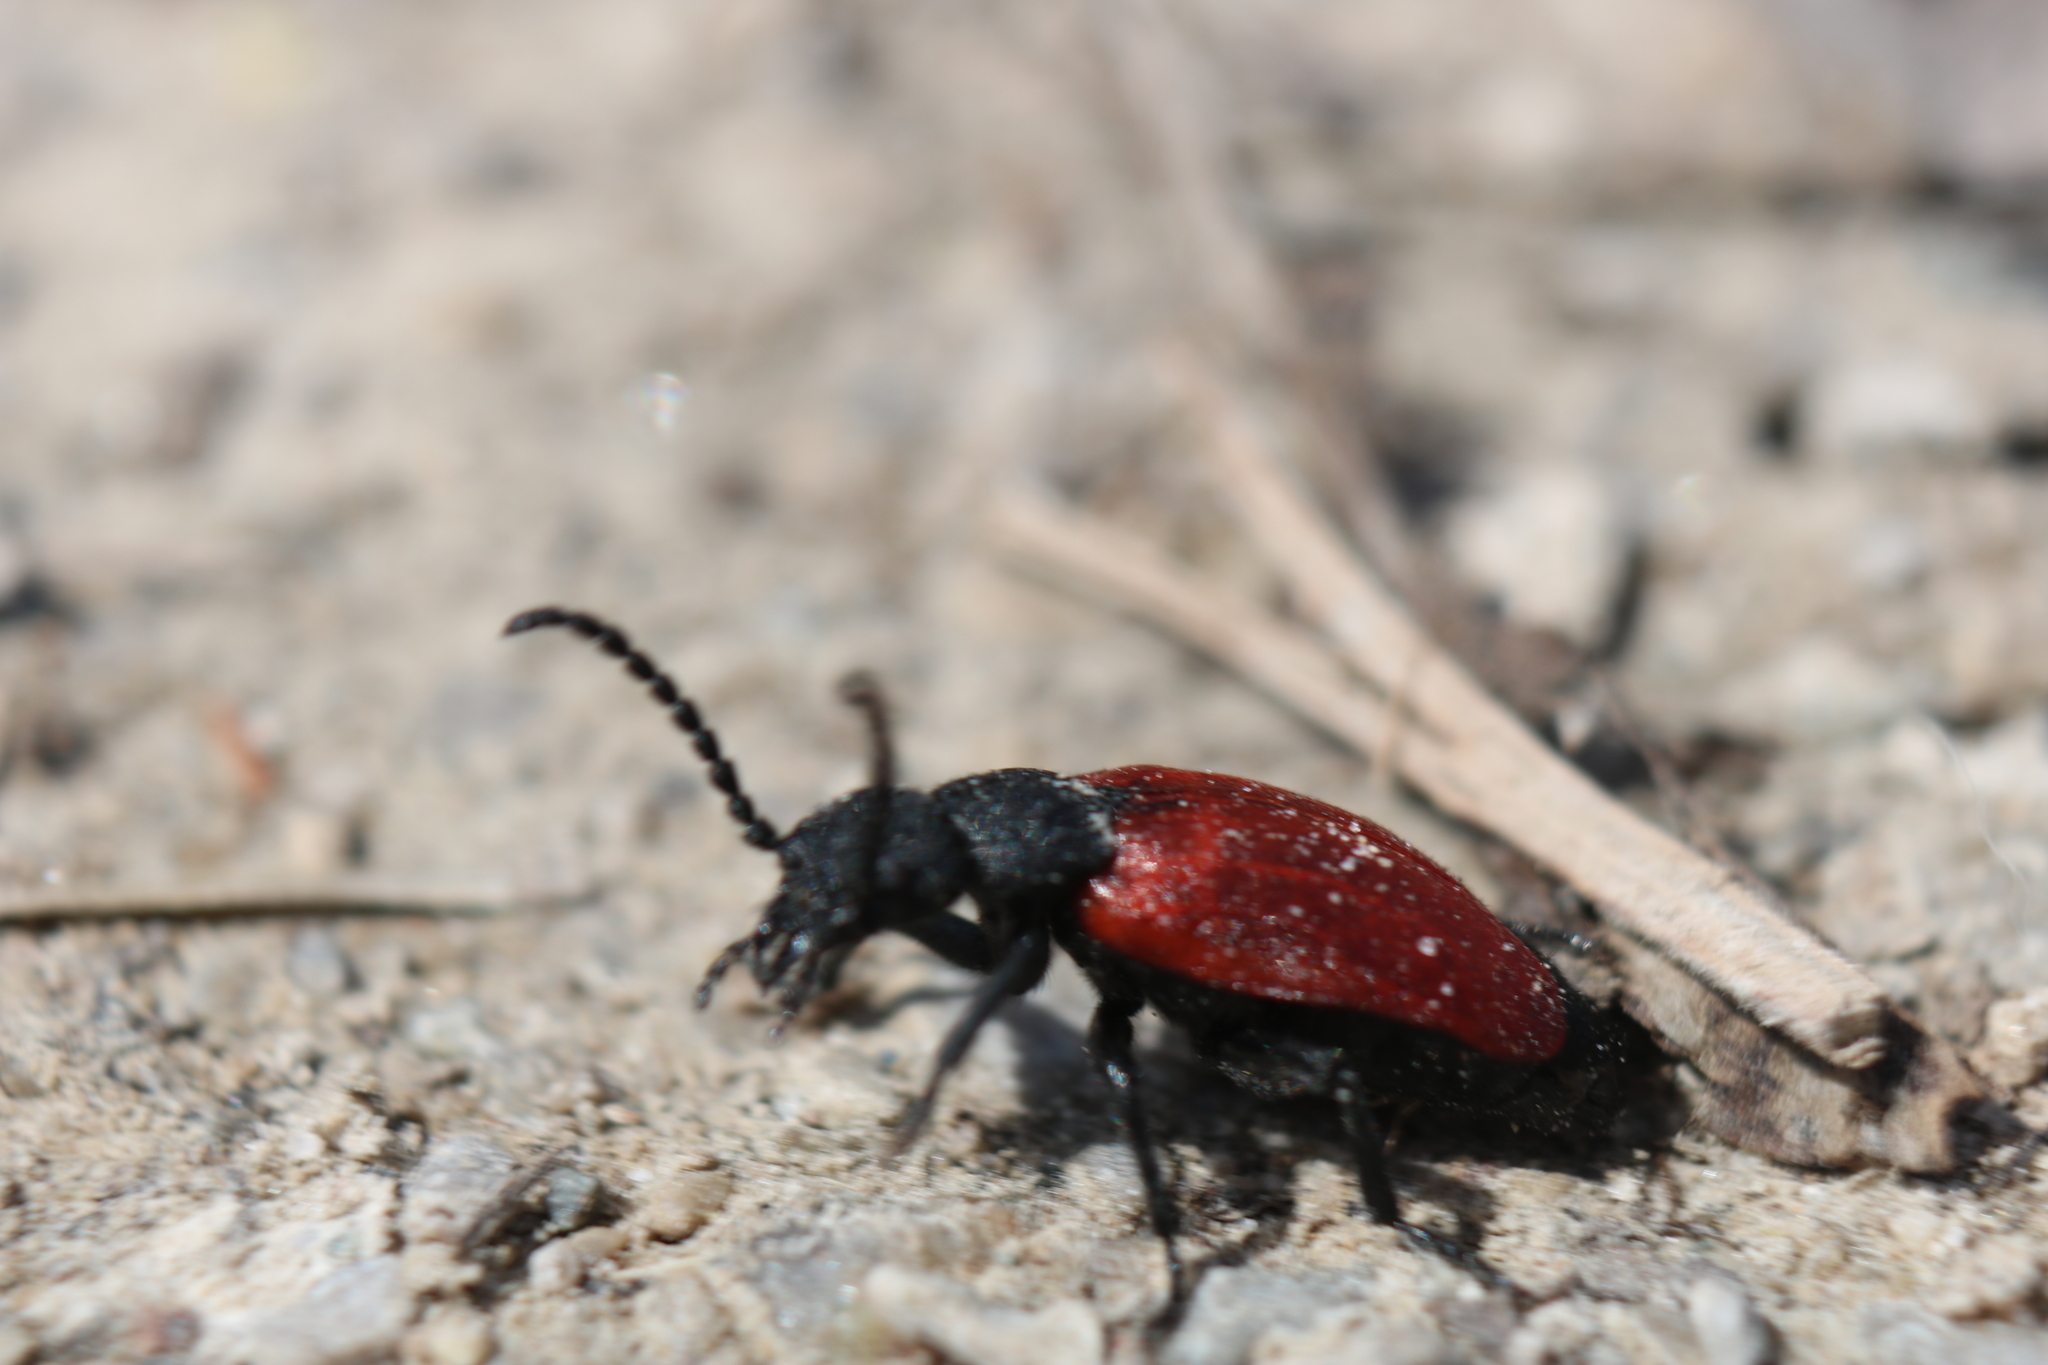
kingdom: Animalia
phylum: Arthropoda
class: Insecta
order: Coleoptera
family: Meloidae
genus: Tricrania
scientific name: Tricrania sanguinipennis
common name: Blood-winged blister beetle
